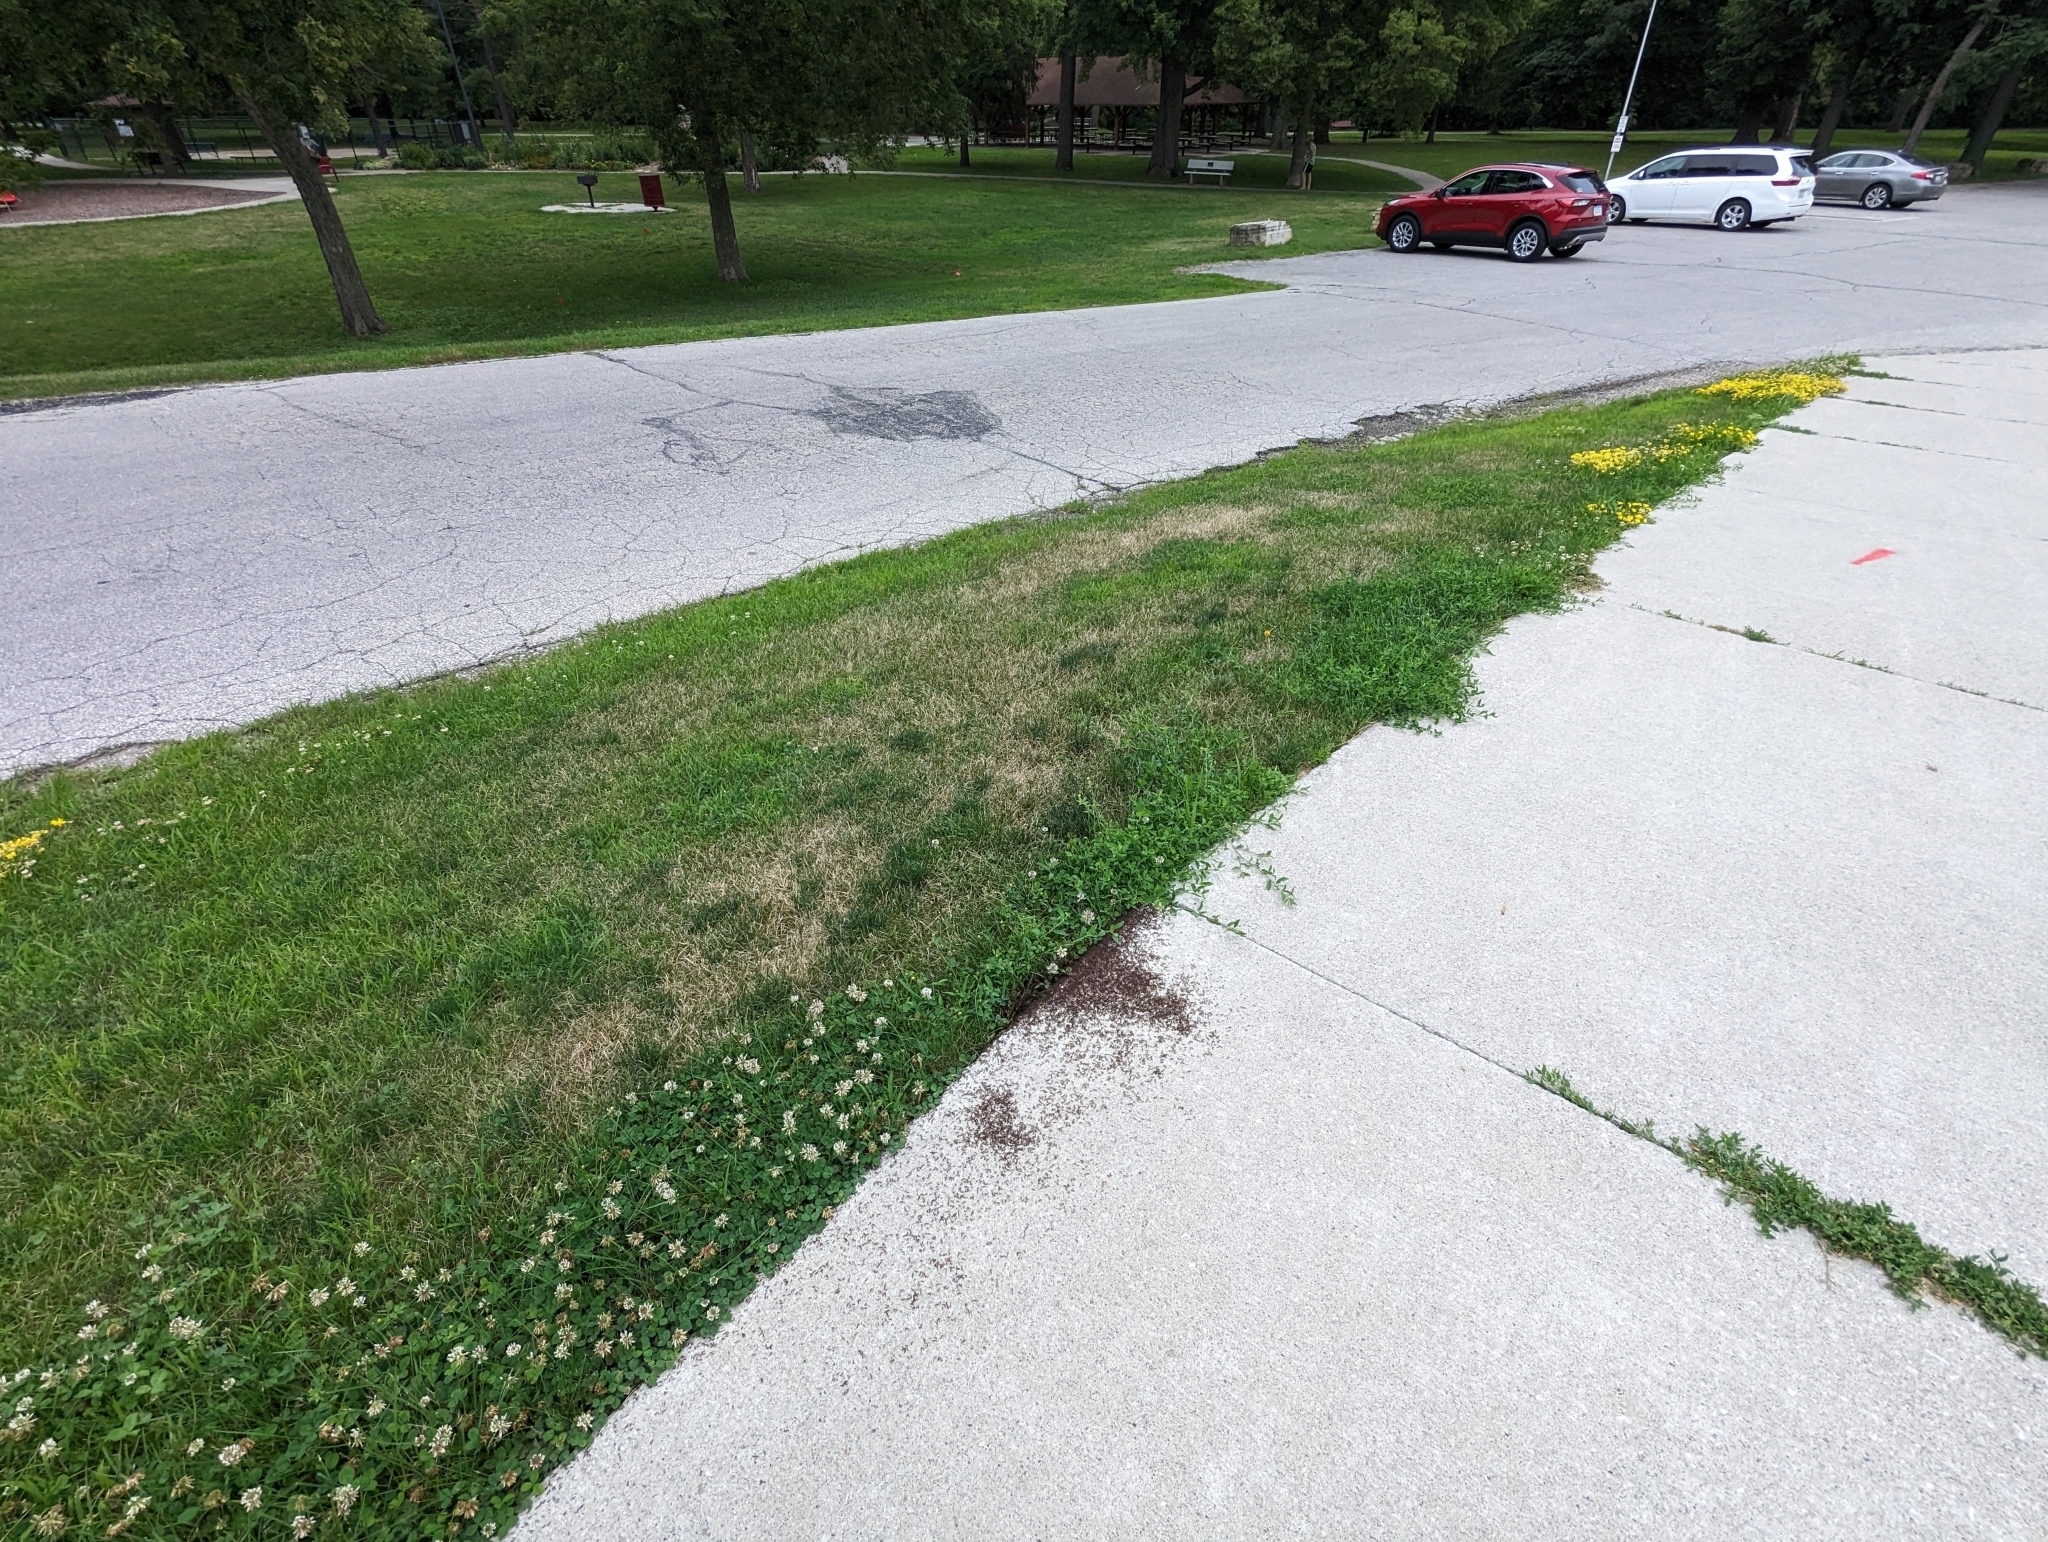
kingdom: Animalia
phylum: Arthropoda
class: Insecta
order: Hymenoptera
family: Formicidae
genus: Tetramorium
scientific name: Tetramorium immigrans
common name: Pavement ant
